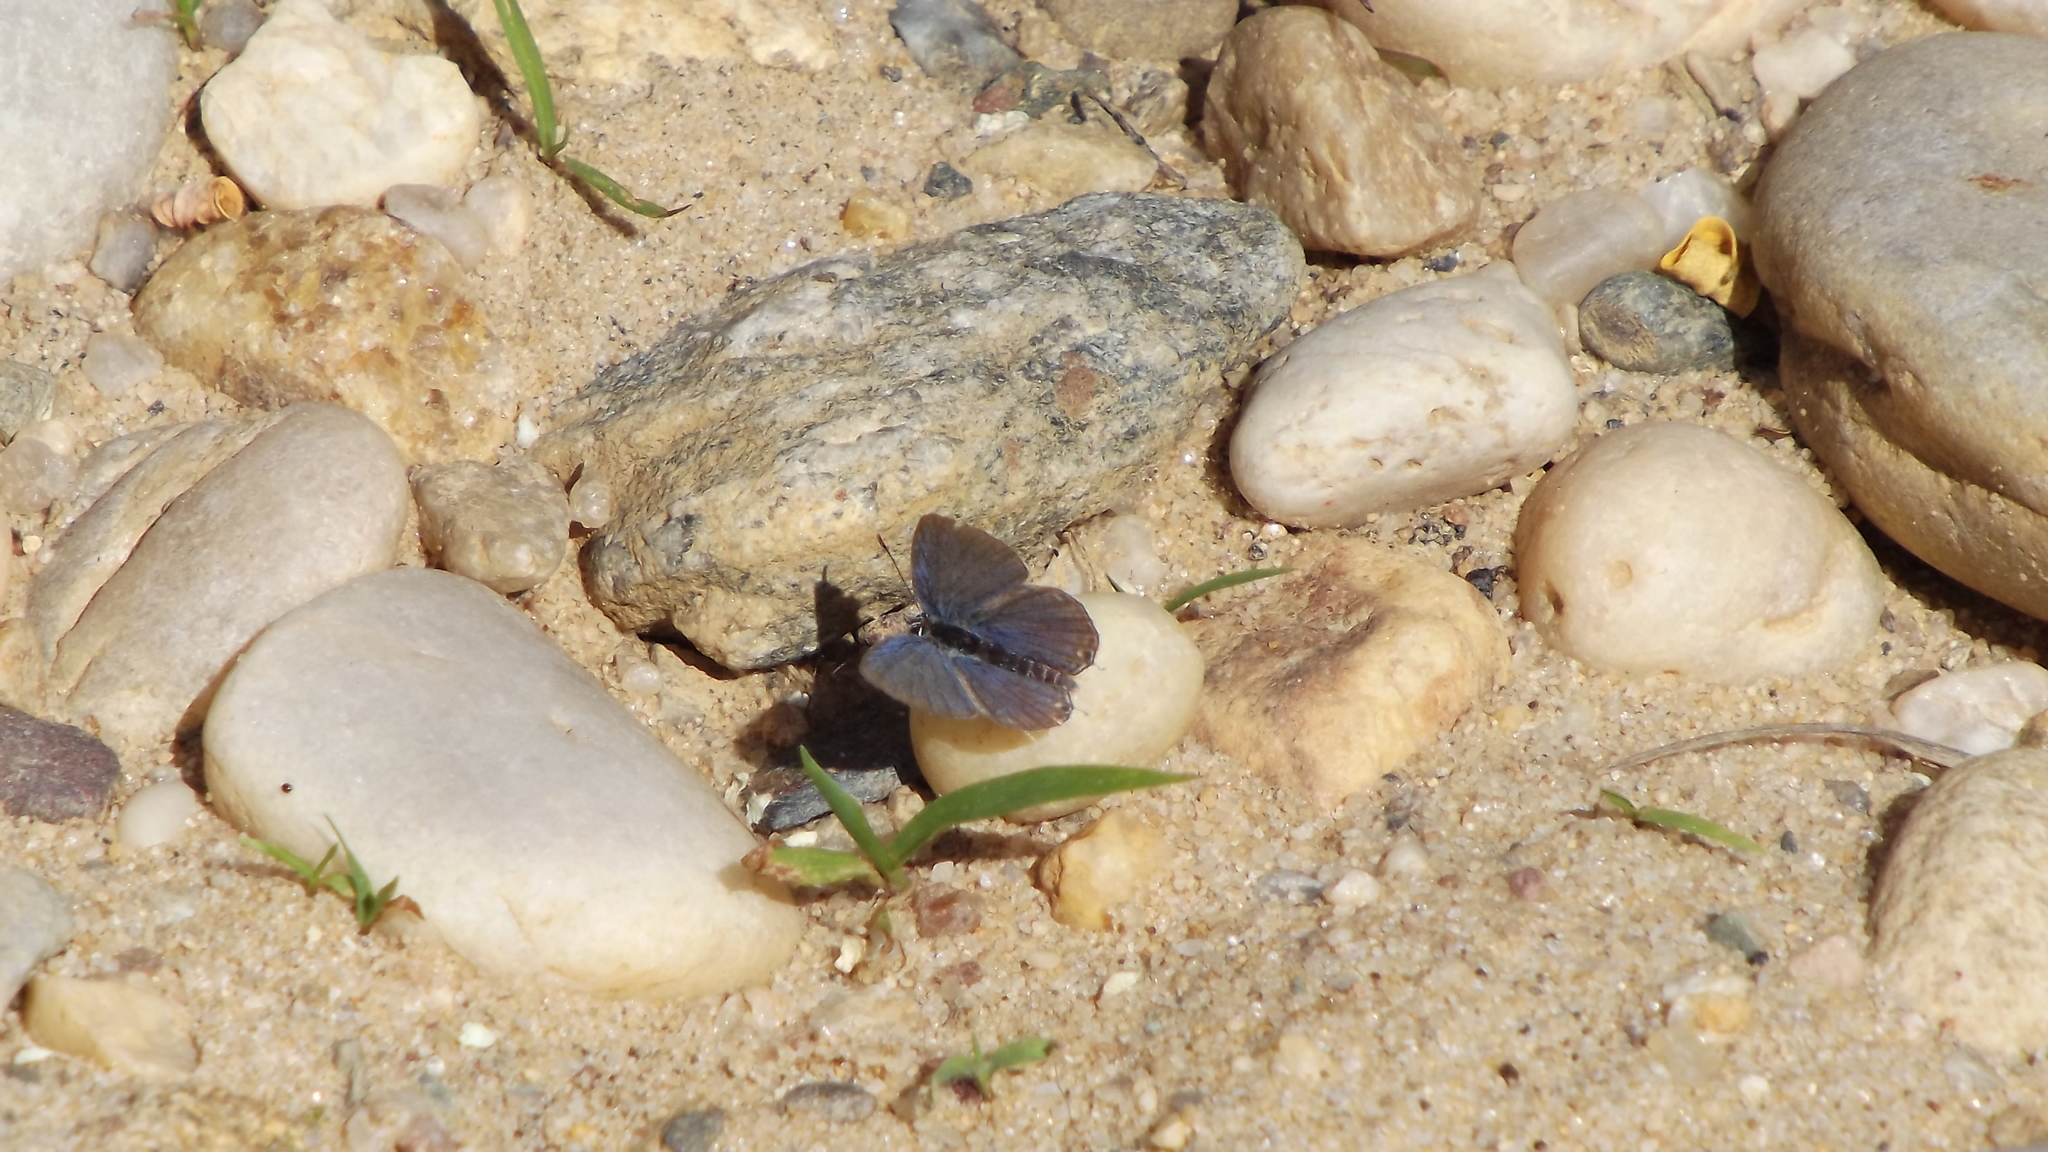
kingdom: Animalia
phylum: Arthropoda
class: Insecta
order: Lepidoptera
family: Lycaenidae
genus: Elkalyce
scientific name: Elkalyce comyntas
